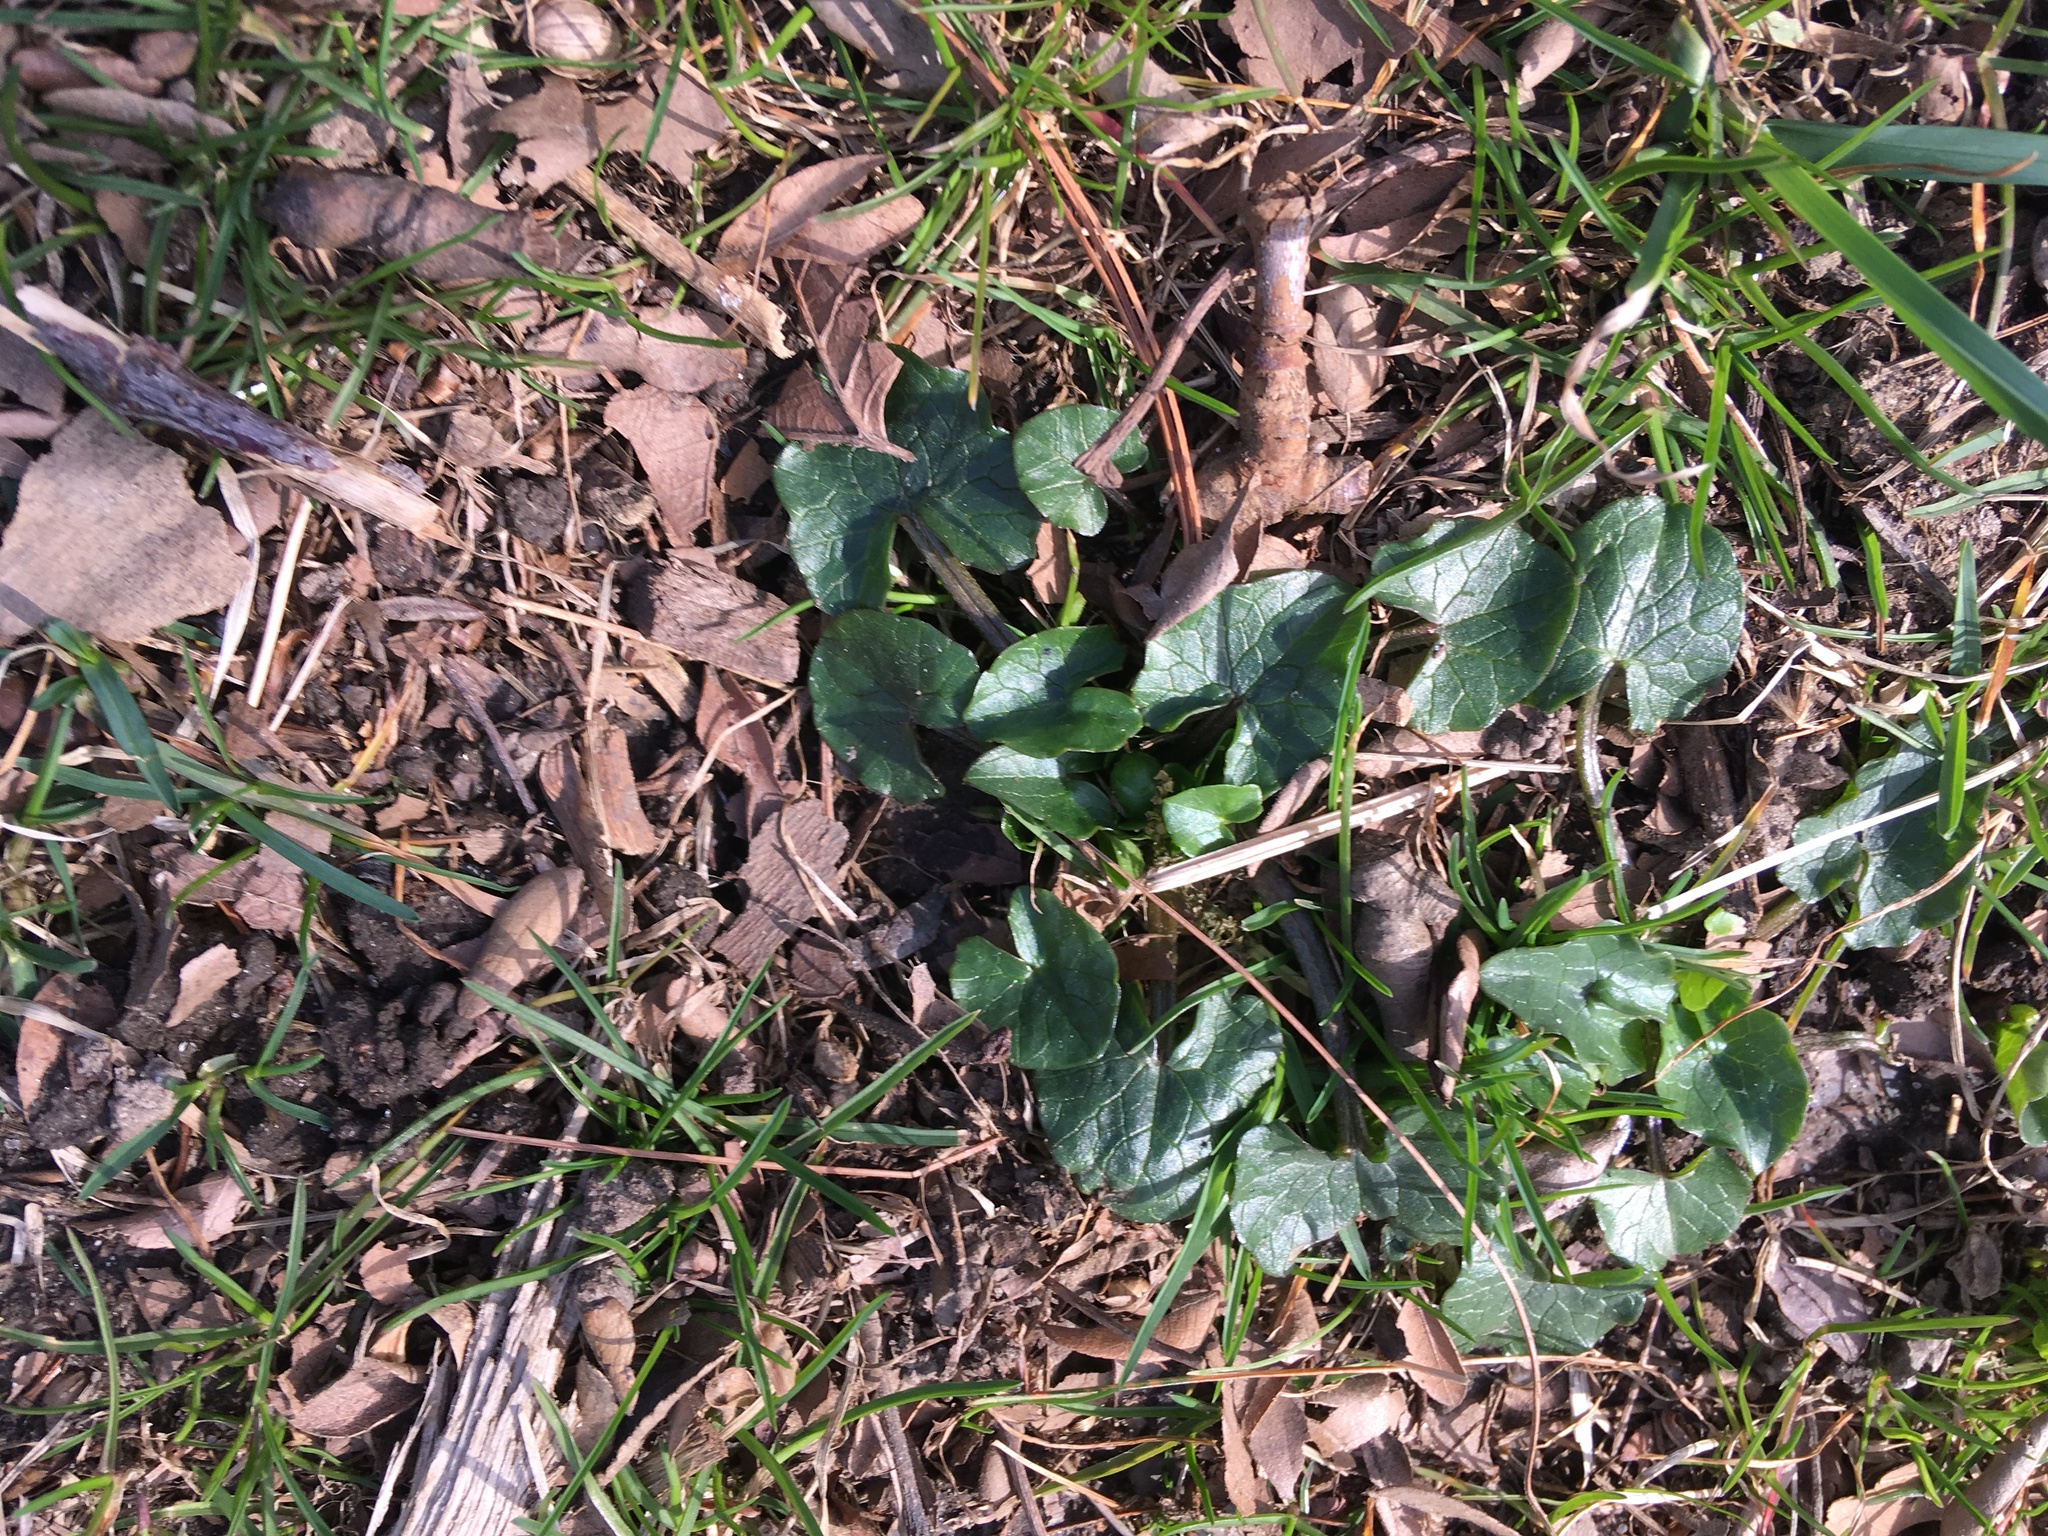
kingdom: Plantae
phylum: Tracheophyta
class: Magnoliopsida
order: Ranunculales
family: Ranunculaceae
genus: Ficaria
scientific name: Ficaria verna
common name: Lesser celandine
